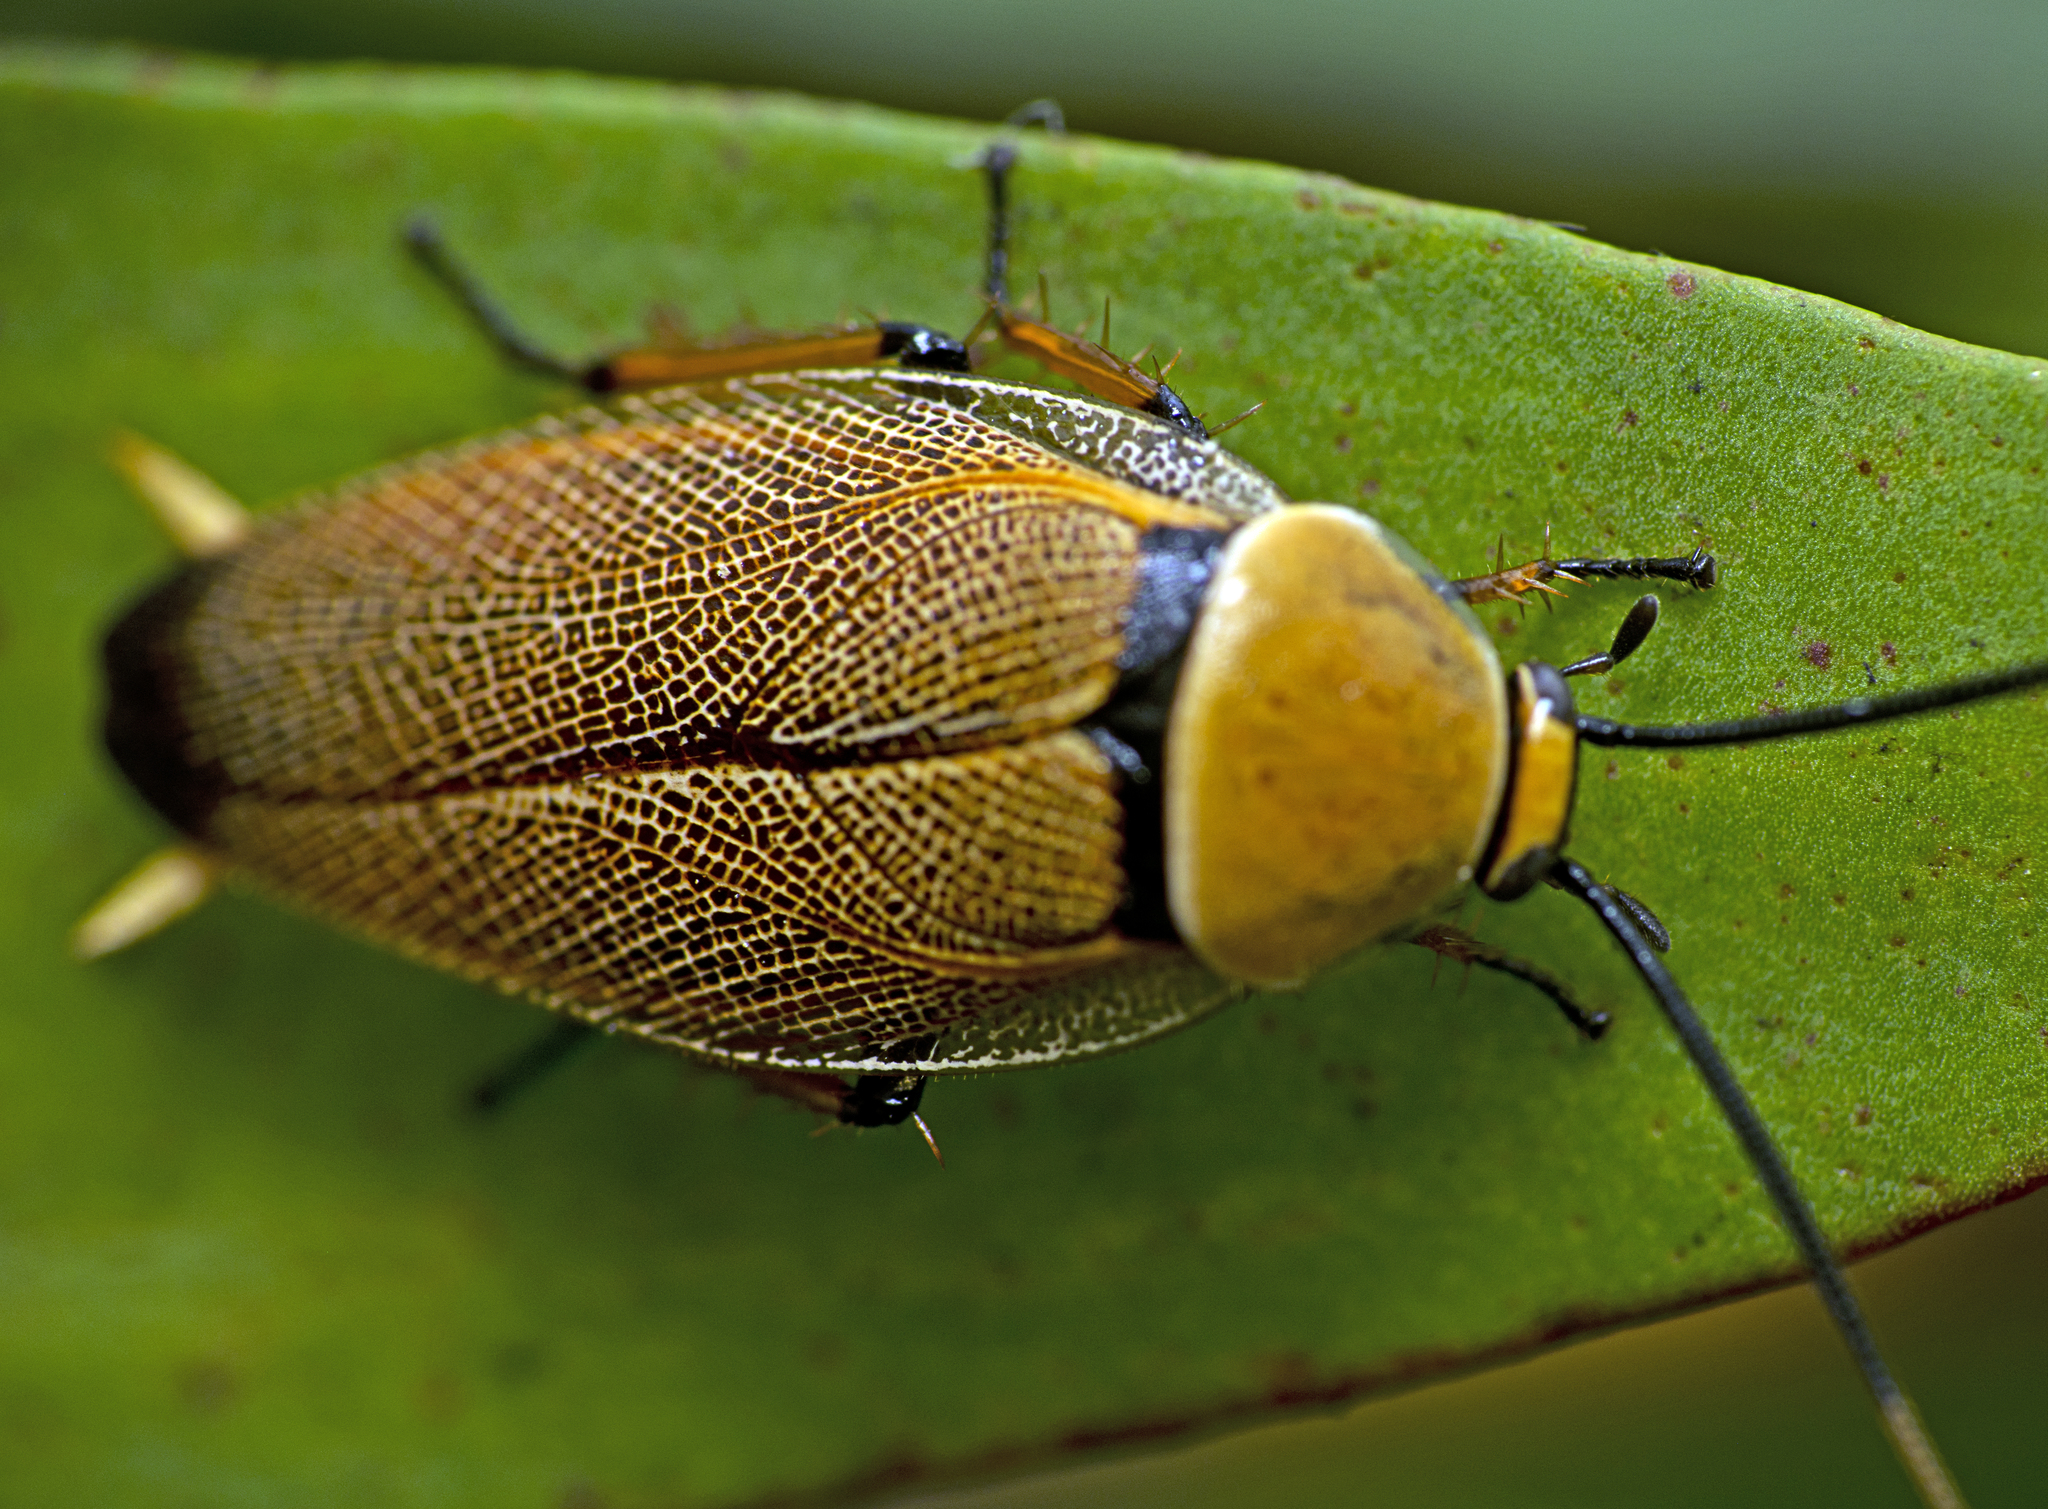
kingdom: Animalia
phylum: Arthropoda
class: Insecta
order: Blattodea
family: Ectobiidae
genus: Ellipsidion
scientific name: Ellipsidion humerale
